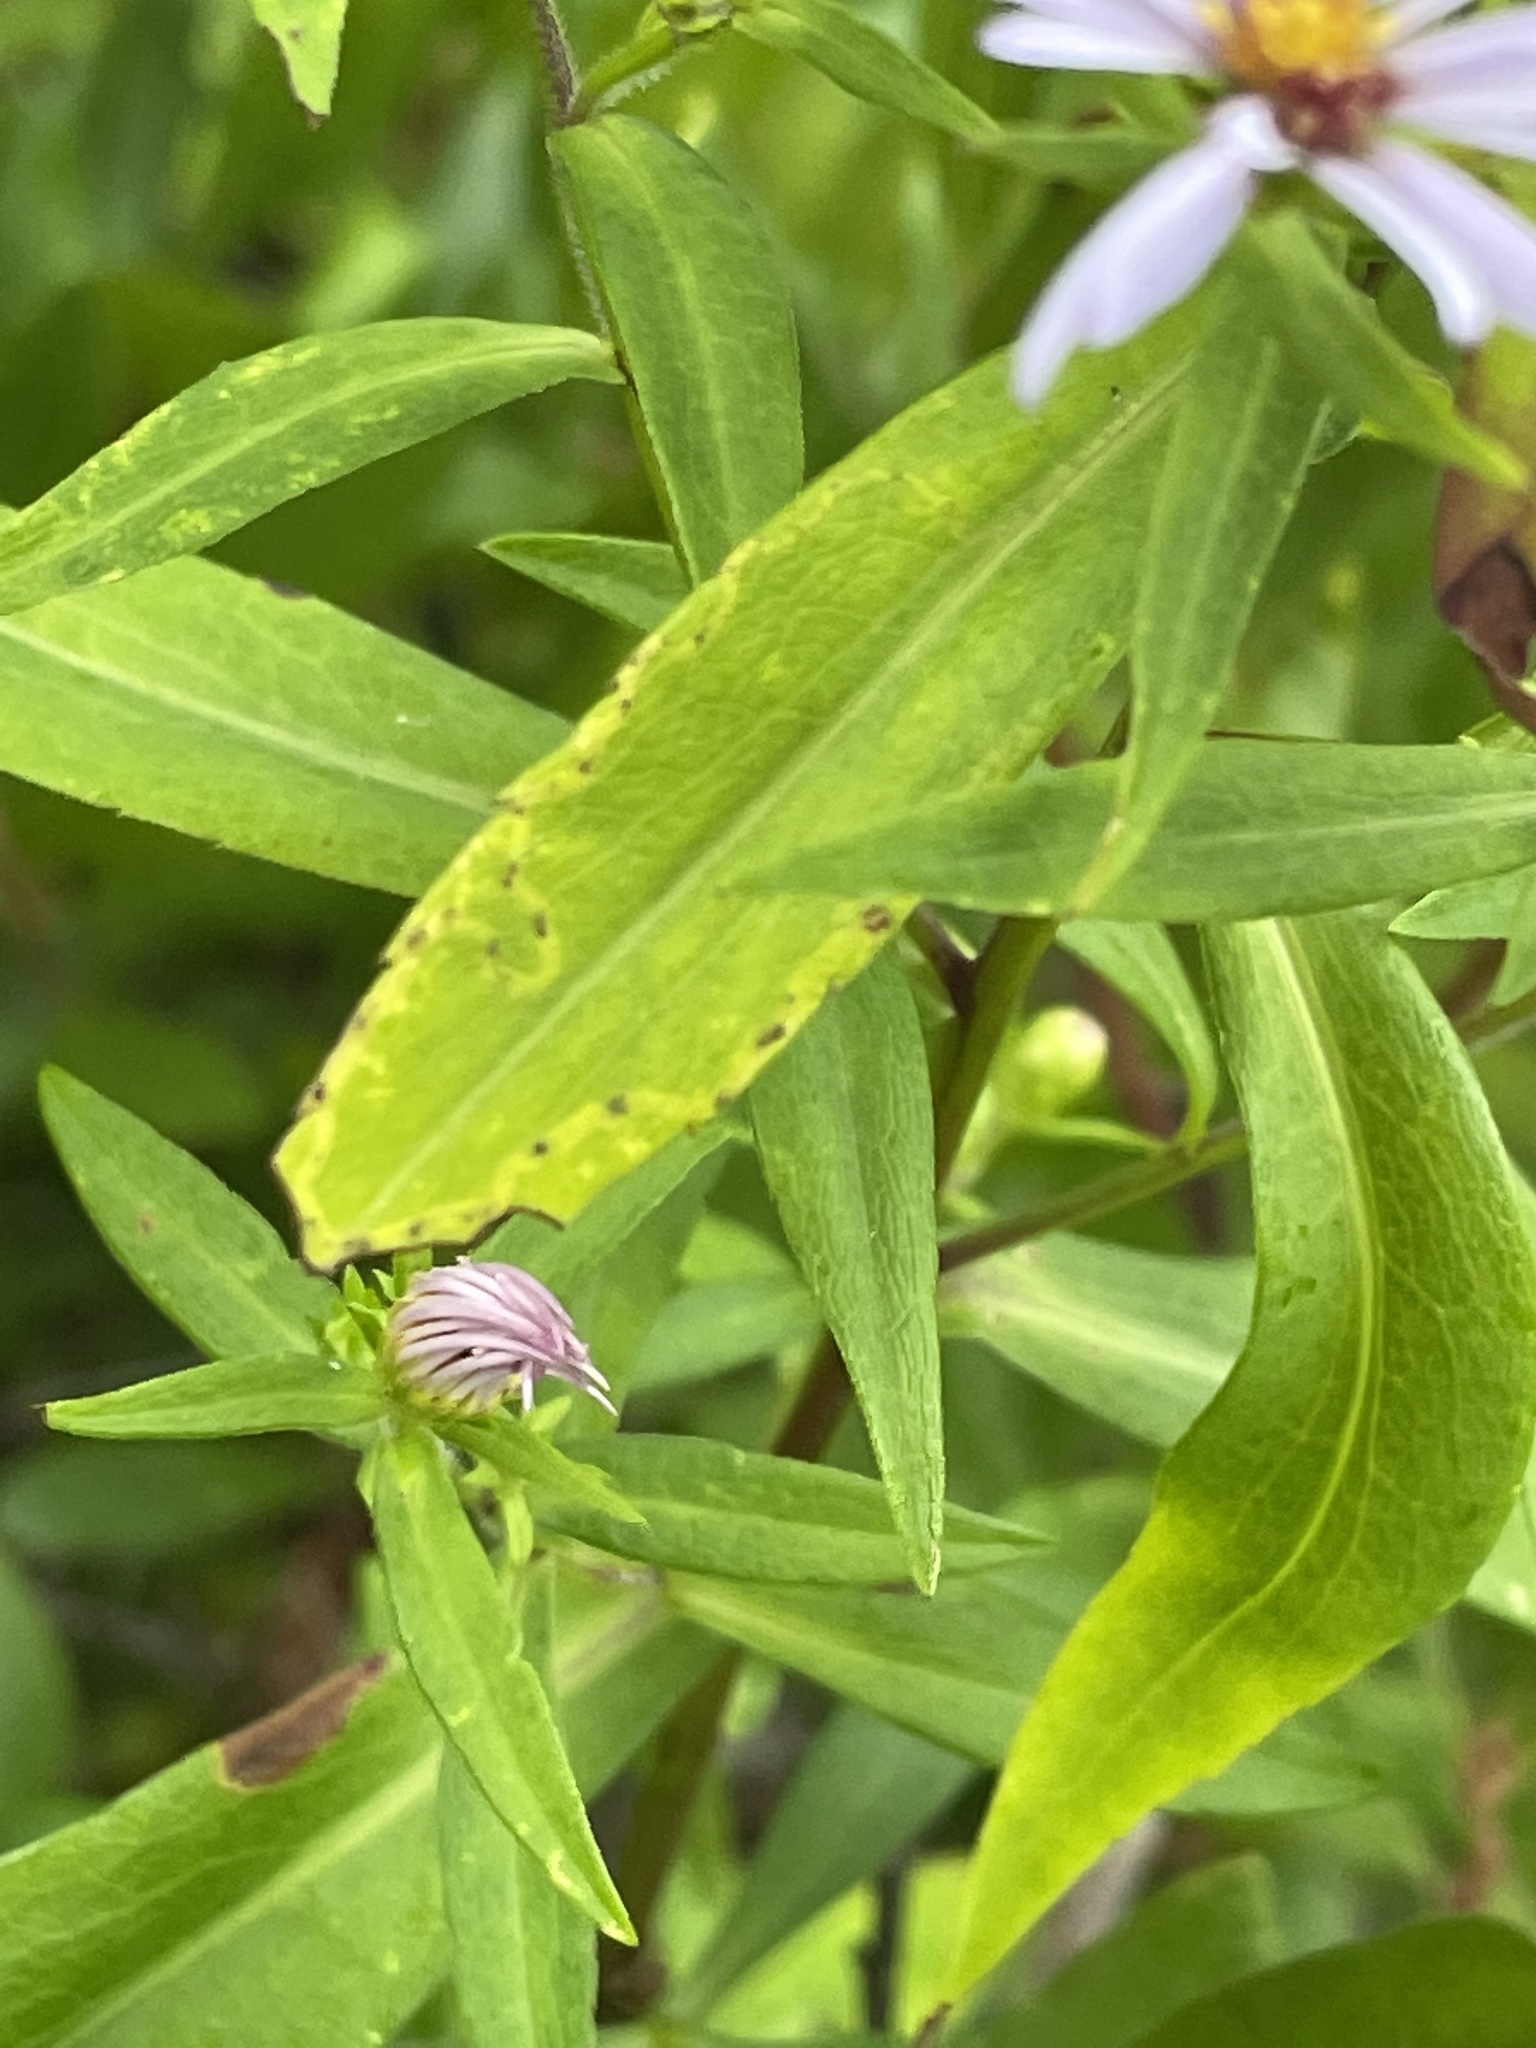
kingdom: Plantae
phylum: Tracheophyta
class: Magnoliopsida
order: Asterales
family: Asteraceae
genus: Symphyotrichum
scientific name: Symphyotrichum novi-belgii
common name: Michaelmas daisy
